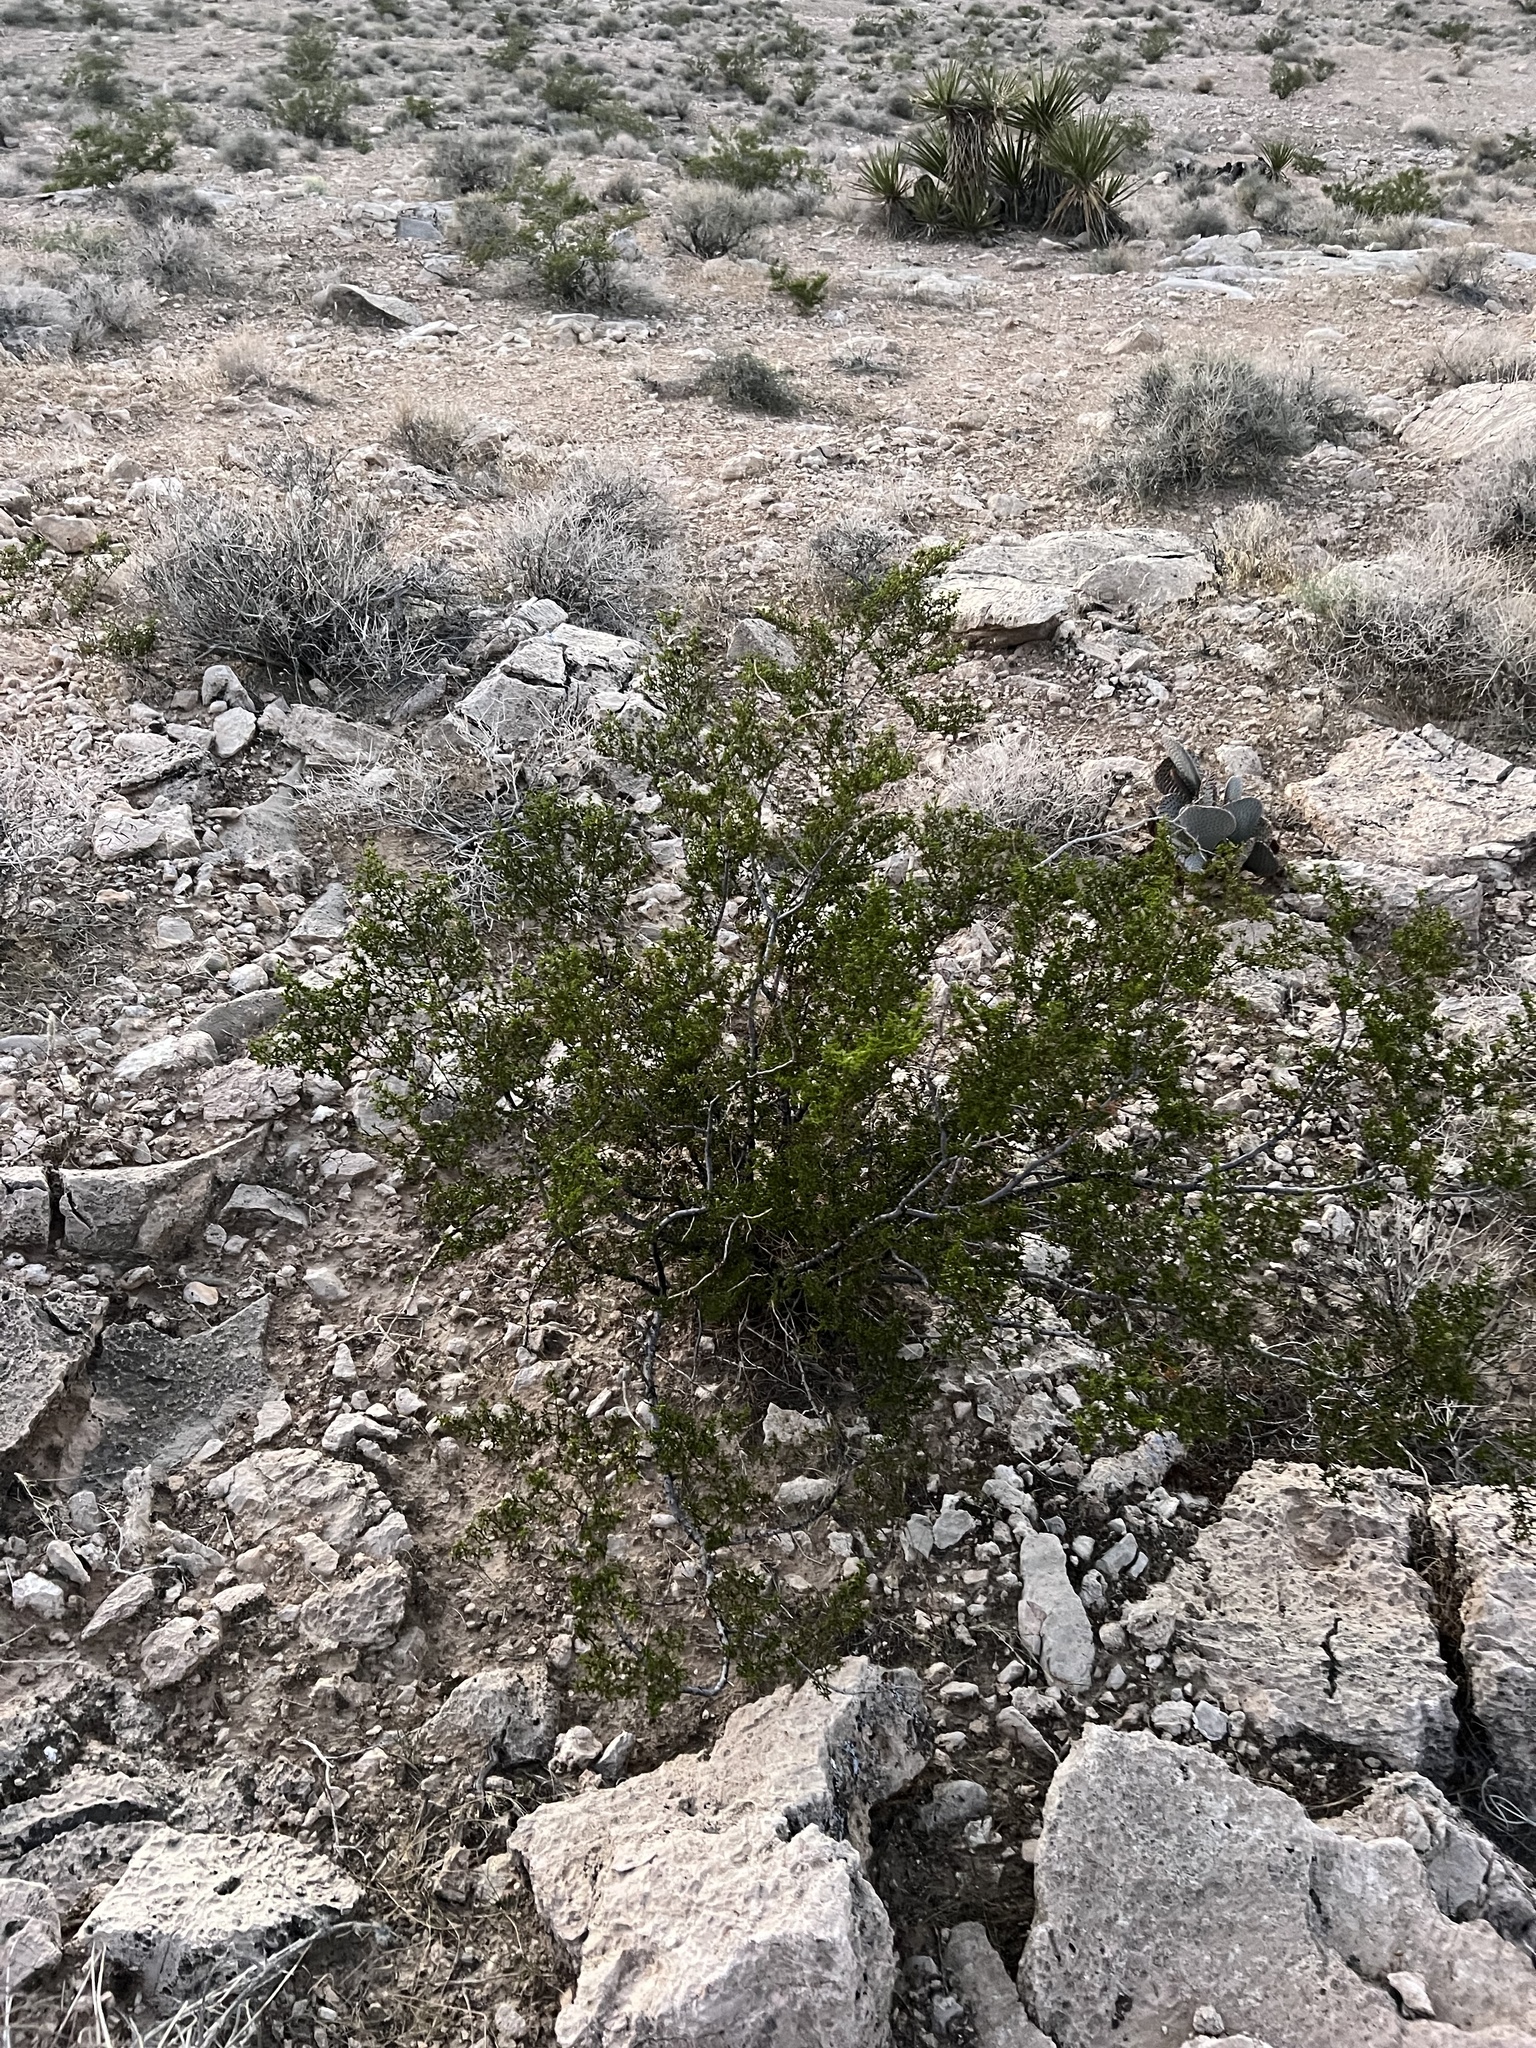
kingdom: Plantae
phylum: Tracheophyta
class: Magnoliopsida
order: Zygophyllales
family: Zygophyllaceae
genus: Larrea
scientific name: Larrea tridentata
